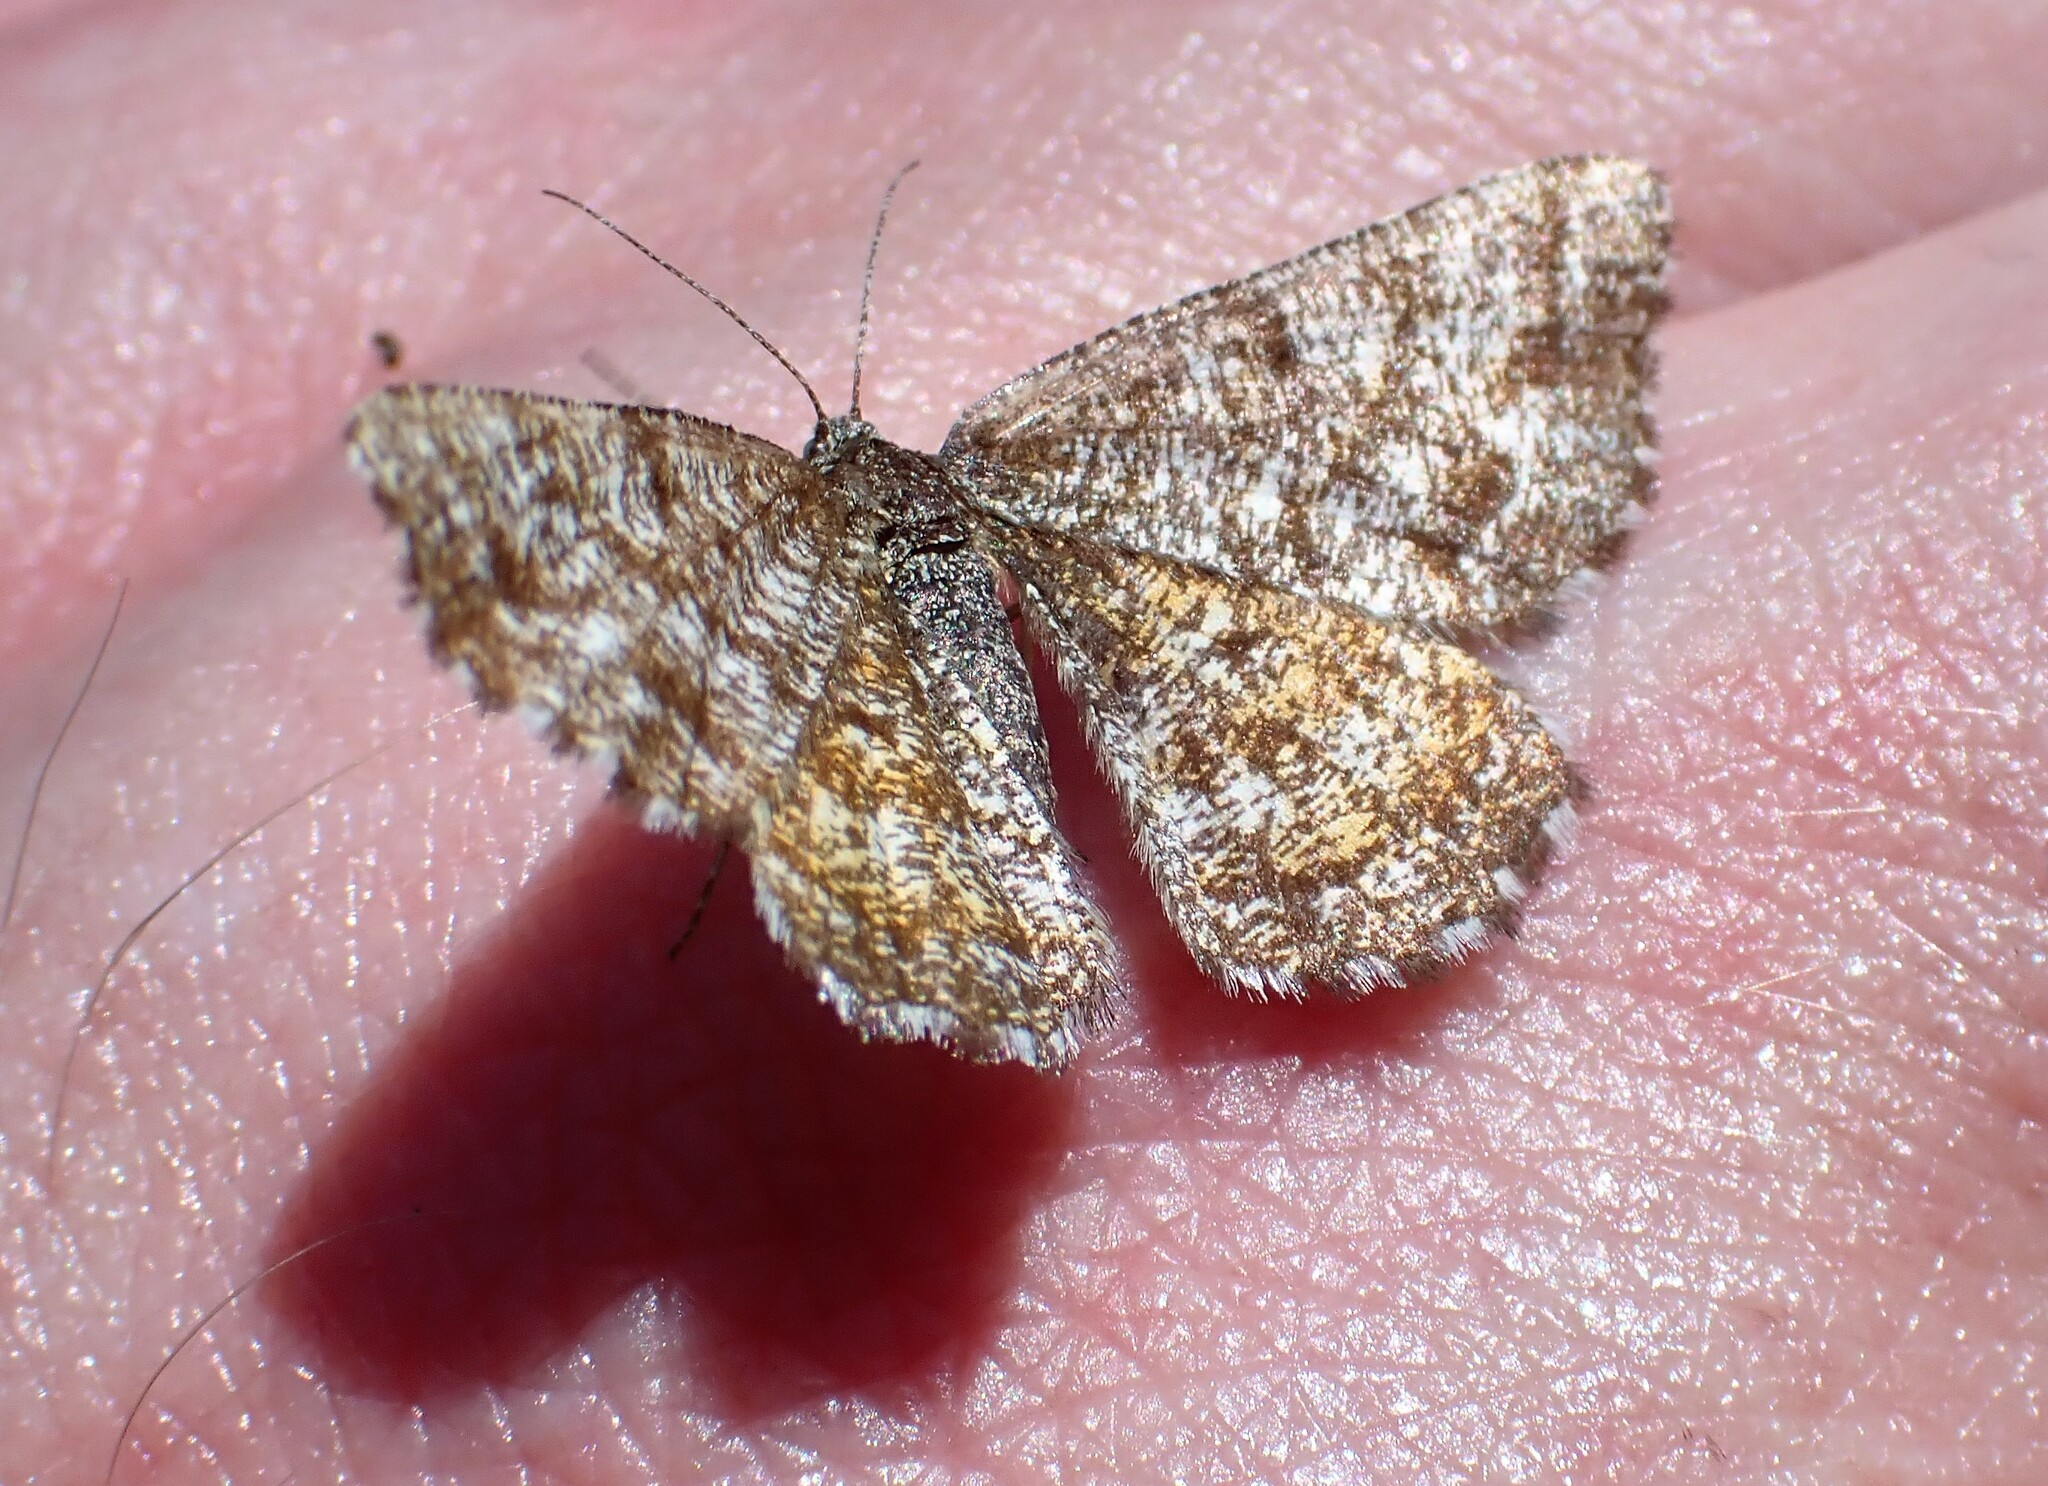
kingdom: Animalia
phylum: Arthropoda
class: Insecta
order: Lepidoptera
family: Geometridae
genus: Ematurga
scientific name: Ematurga amitaria
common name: Cranberry spanworm moth
